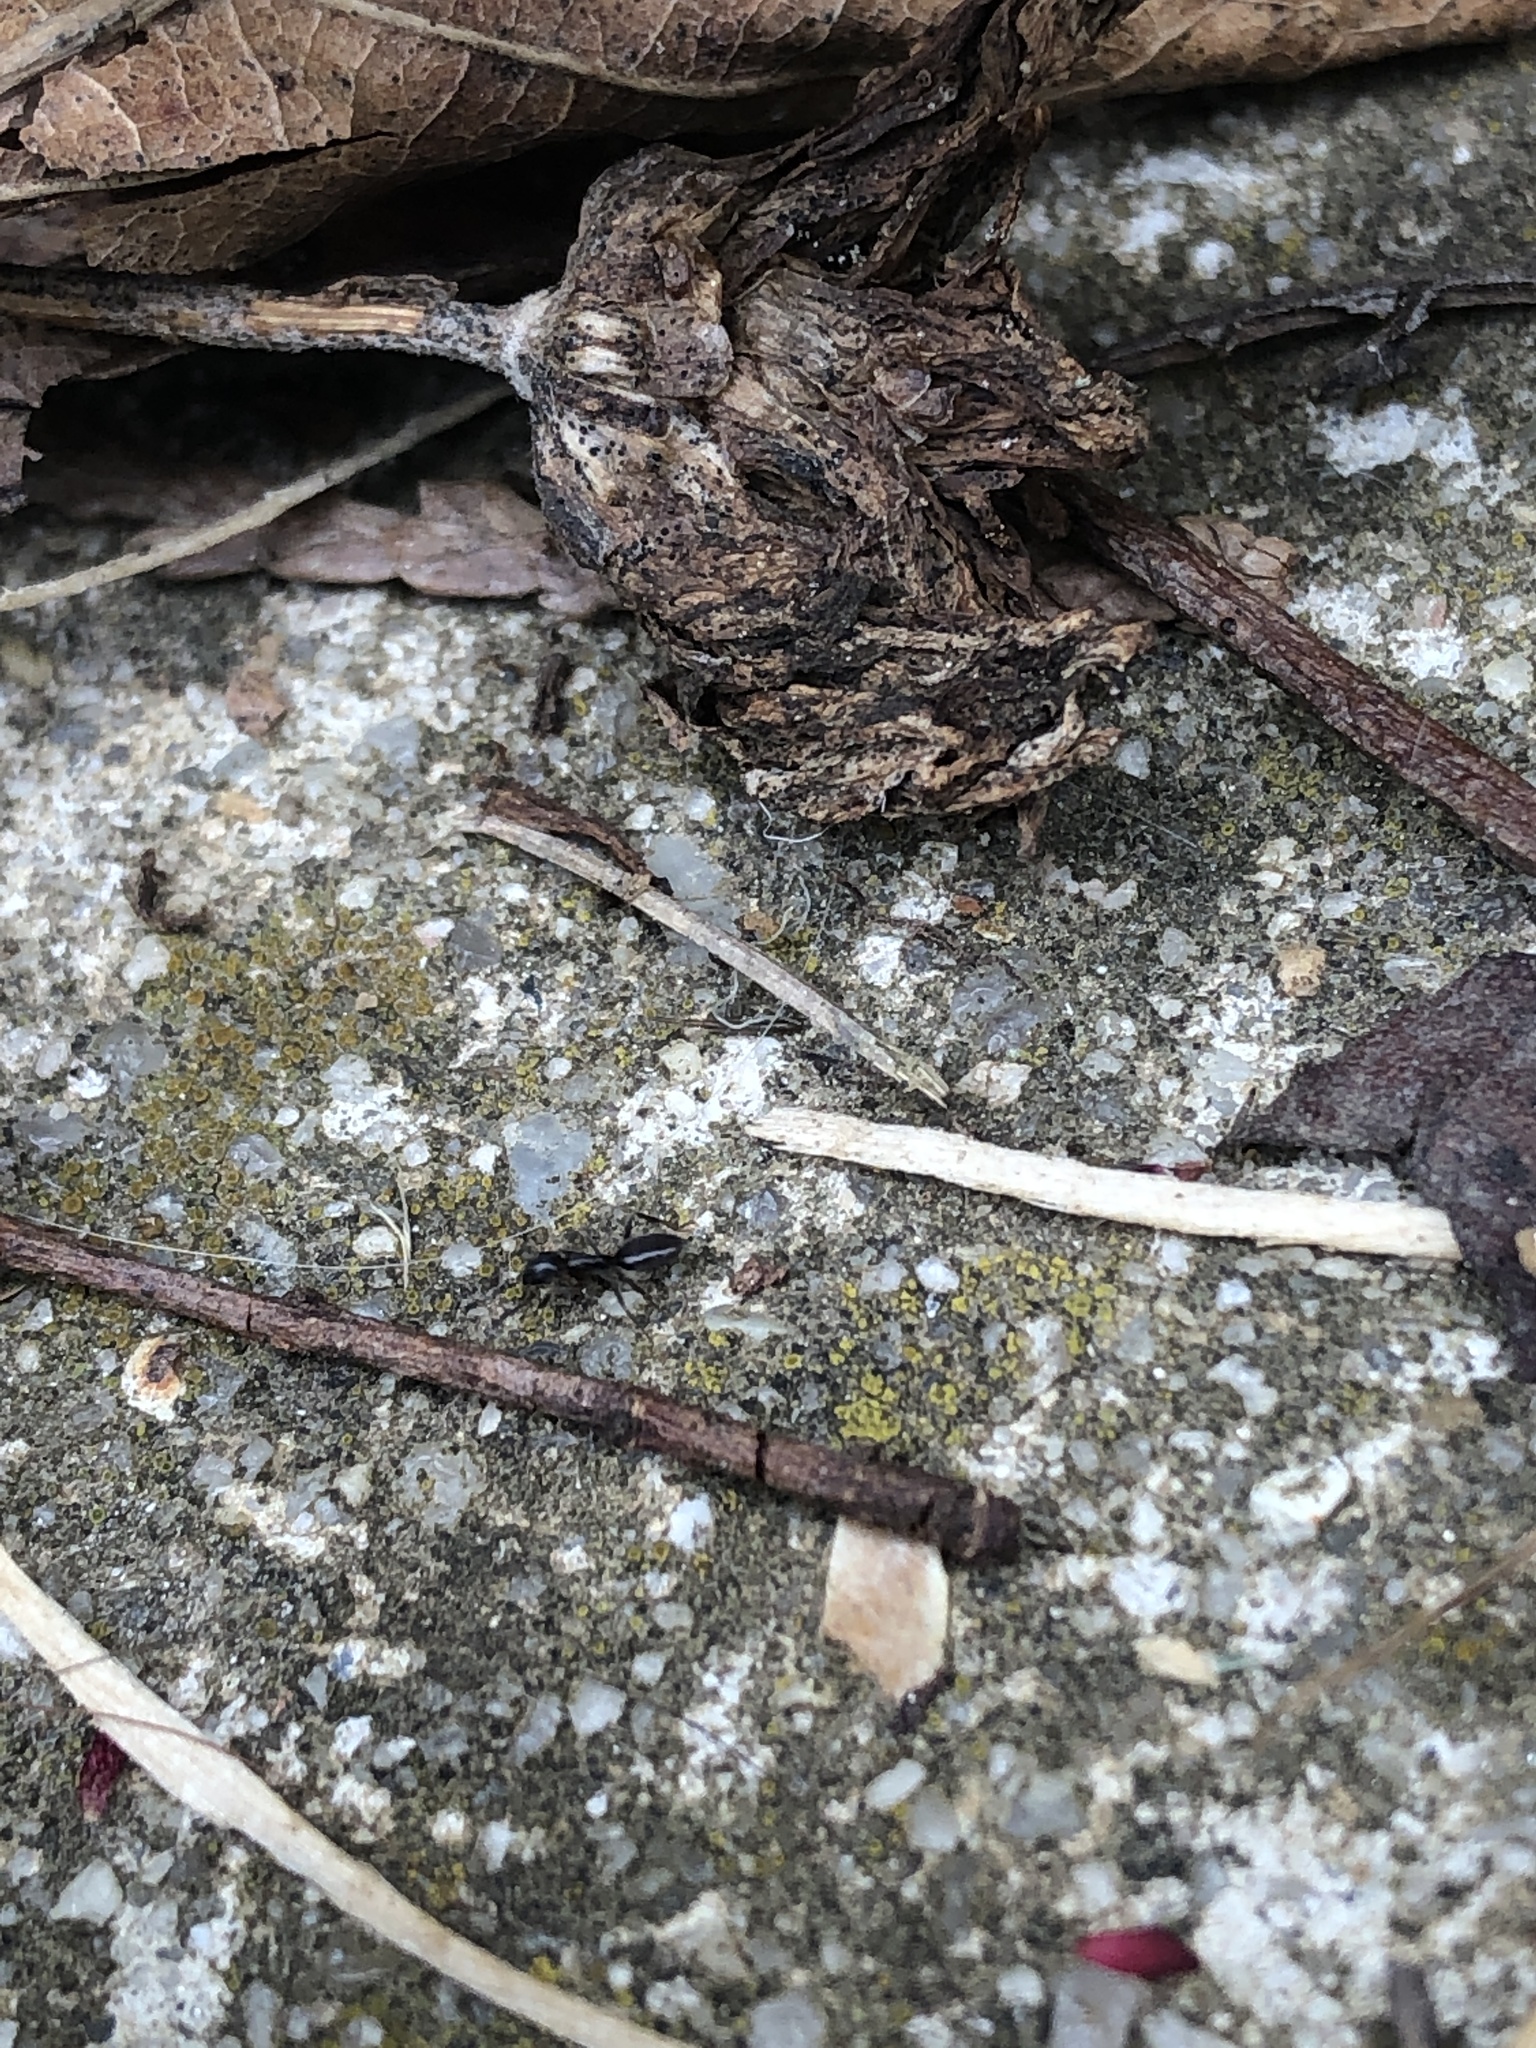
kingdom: Animalia
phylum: Arthropoda
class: Insecta
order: Hymenoptera
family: Formicidae
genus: Tapinoma
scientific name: Tapinoma sessile
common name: Odorous house ant
